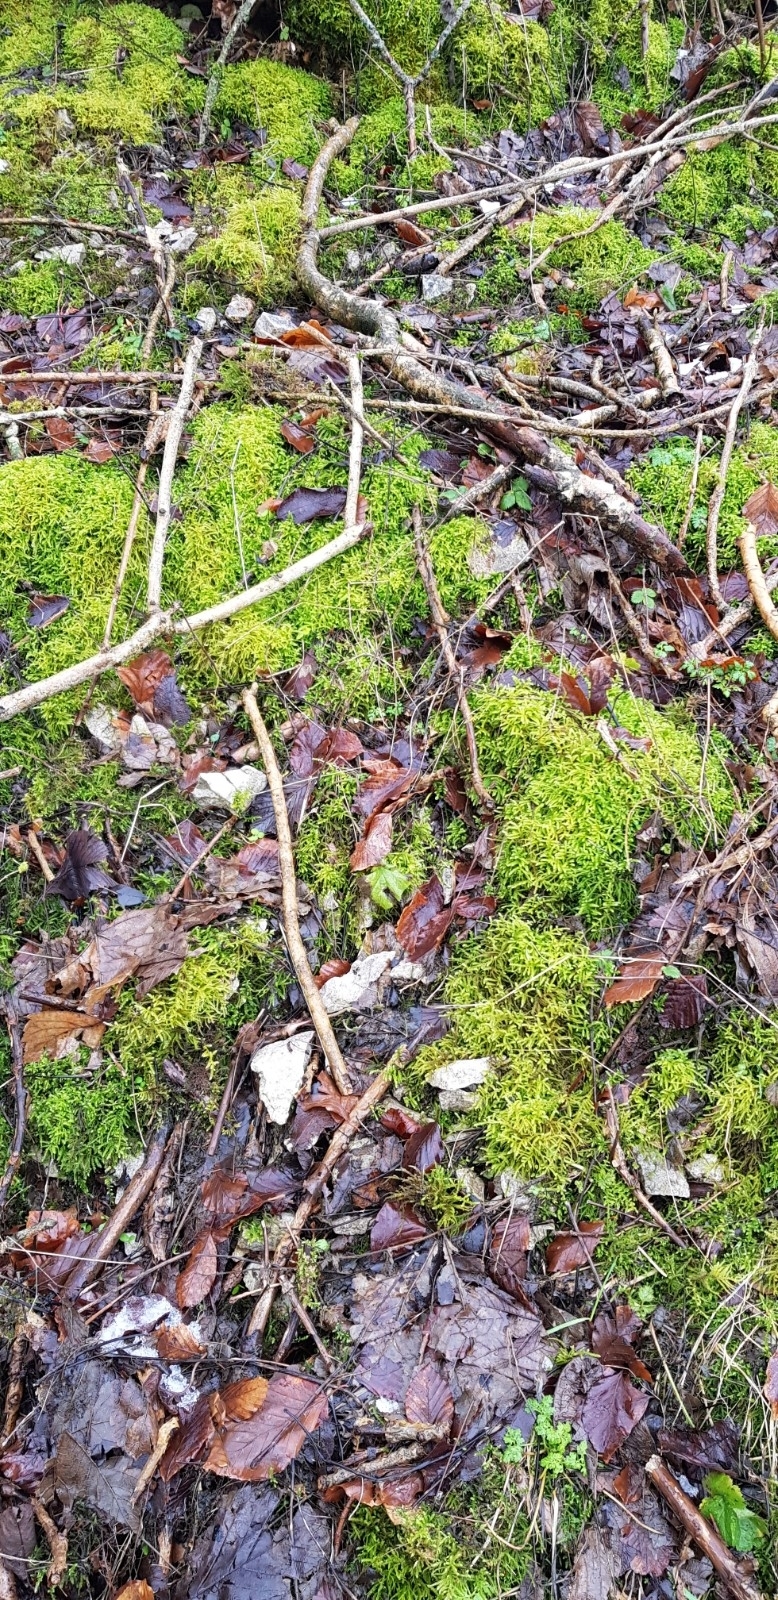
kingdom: Plantae
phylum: Bryophyta
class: Bryopsida
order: Hypnales
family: Brachytheciaceae
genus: Eurhynchium
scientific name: Eurhynchium striatum
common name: Common striated feather-moss
